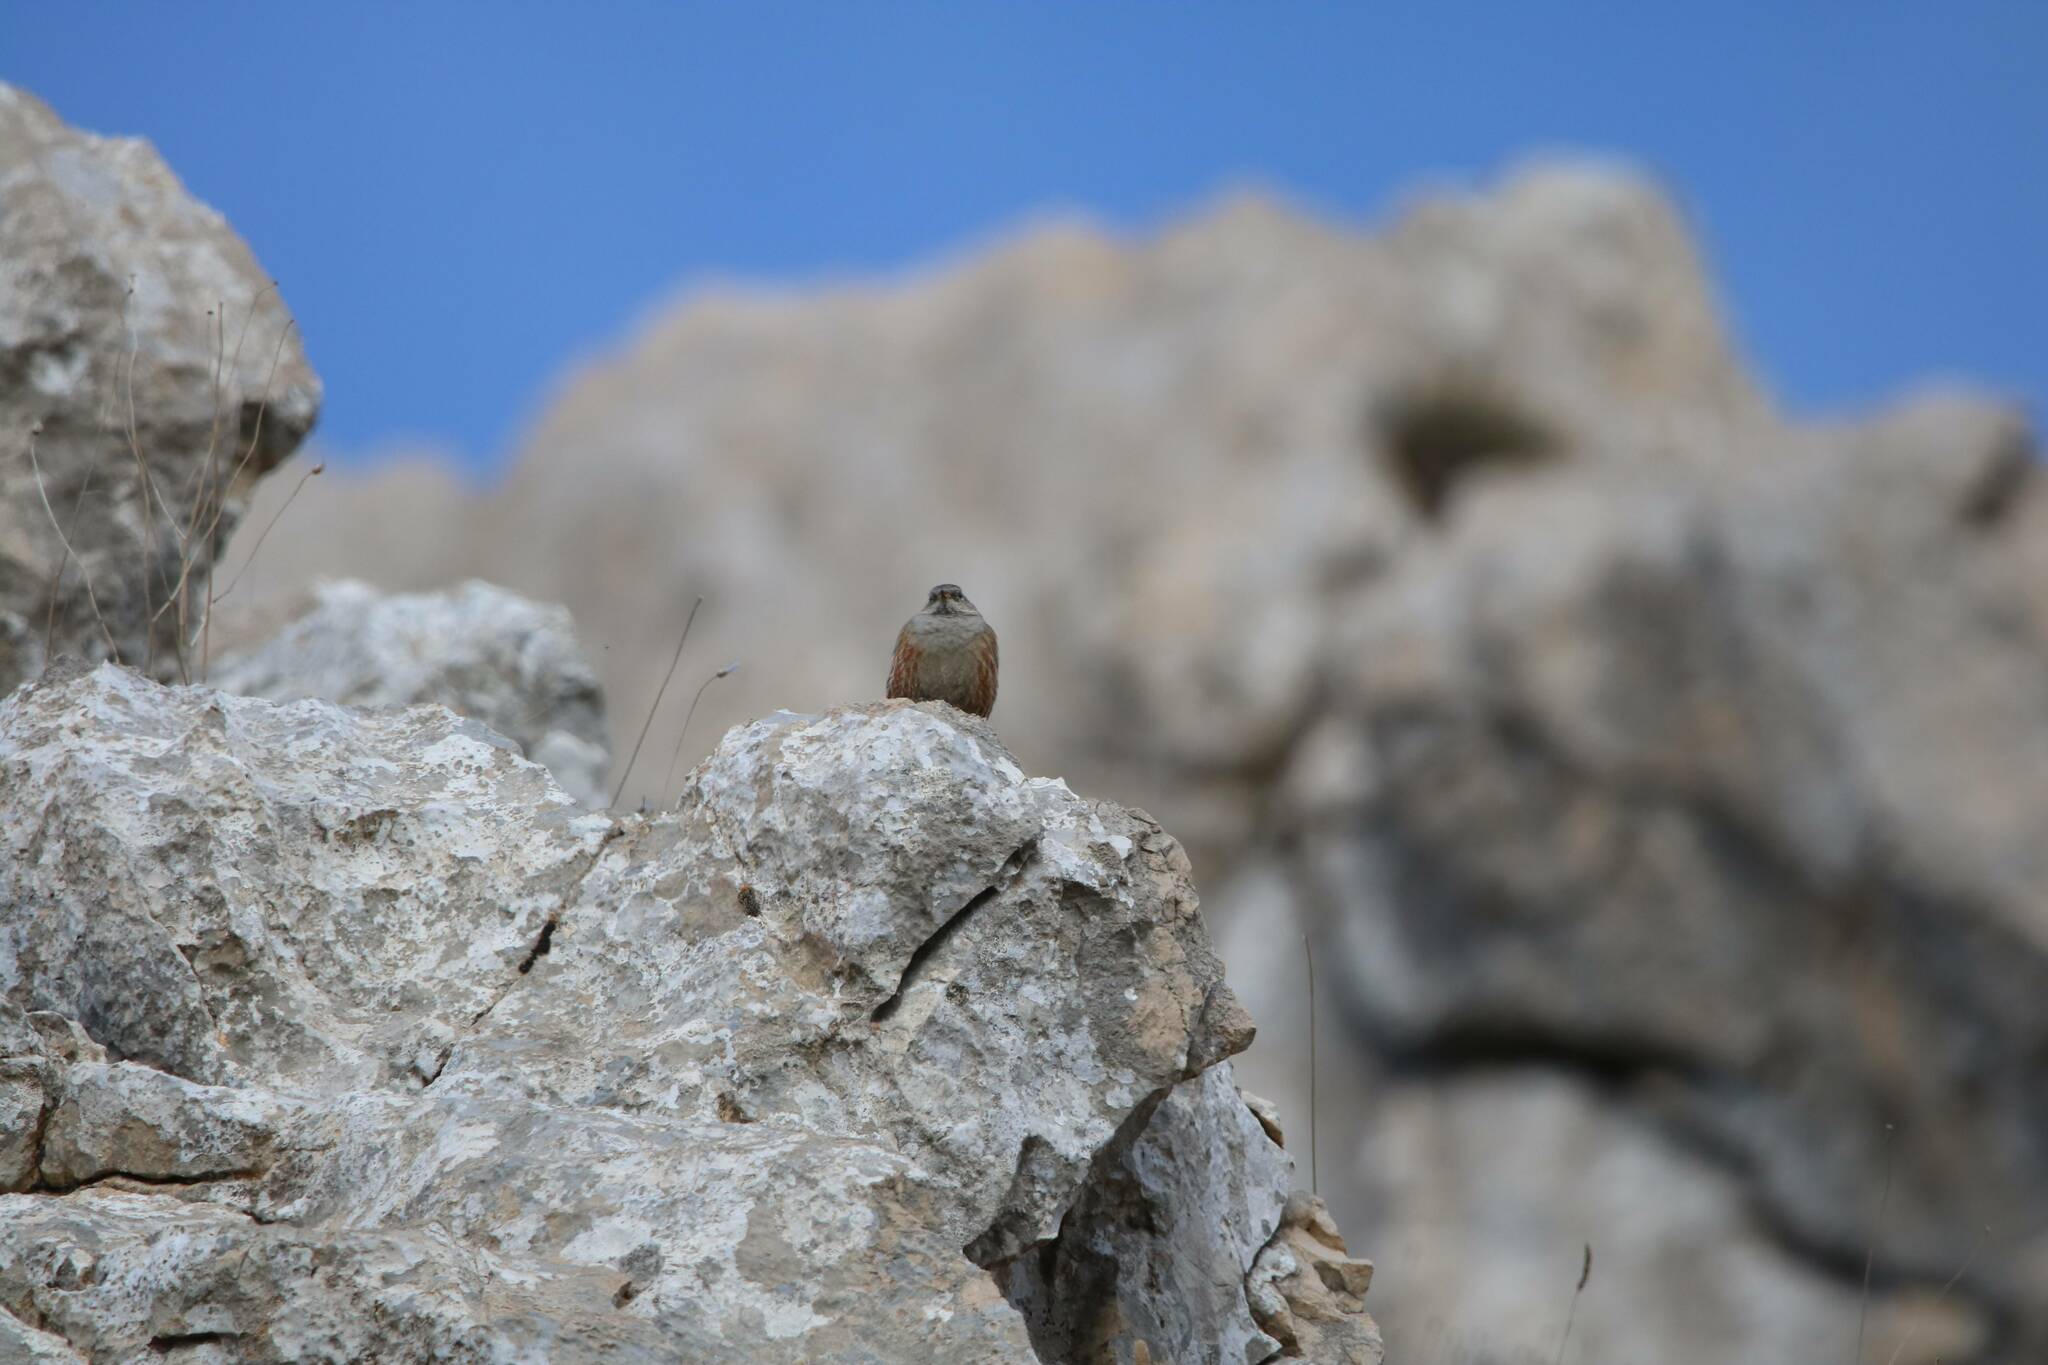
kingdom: Animalia
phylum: Chordata
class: Aves
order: Passeriformes
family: Prunellidae
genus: Prunella
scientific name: Prunella collaris
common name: Alpine accentor
